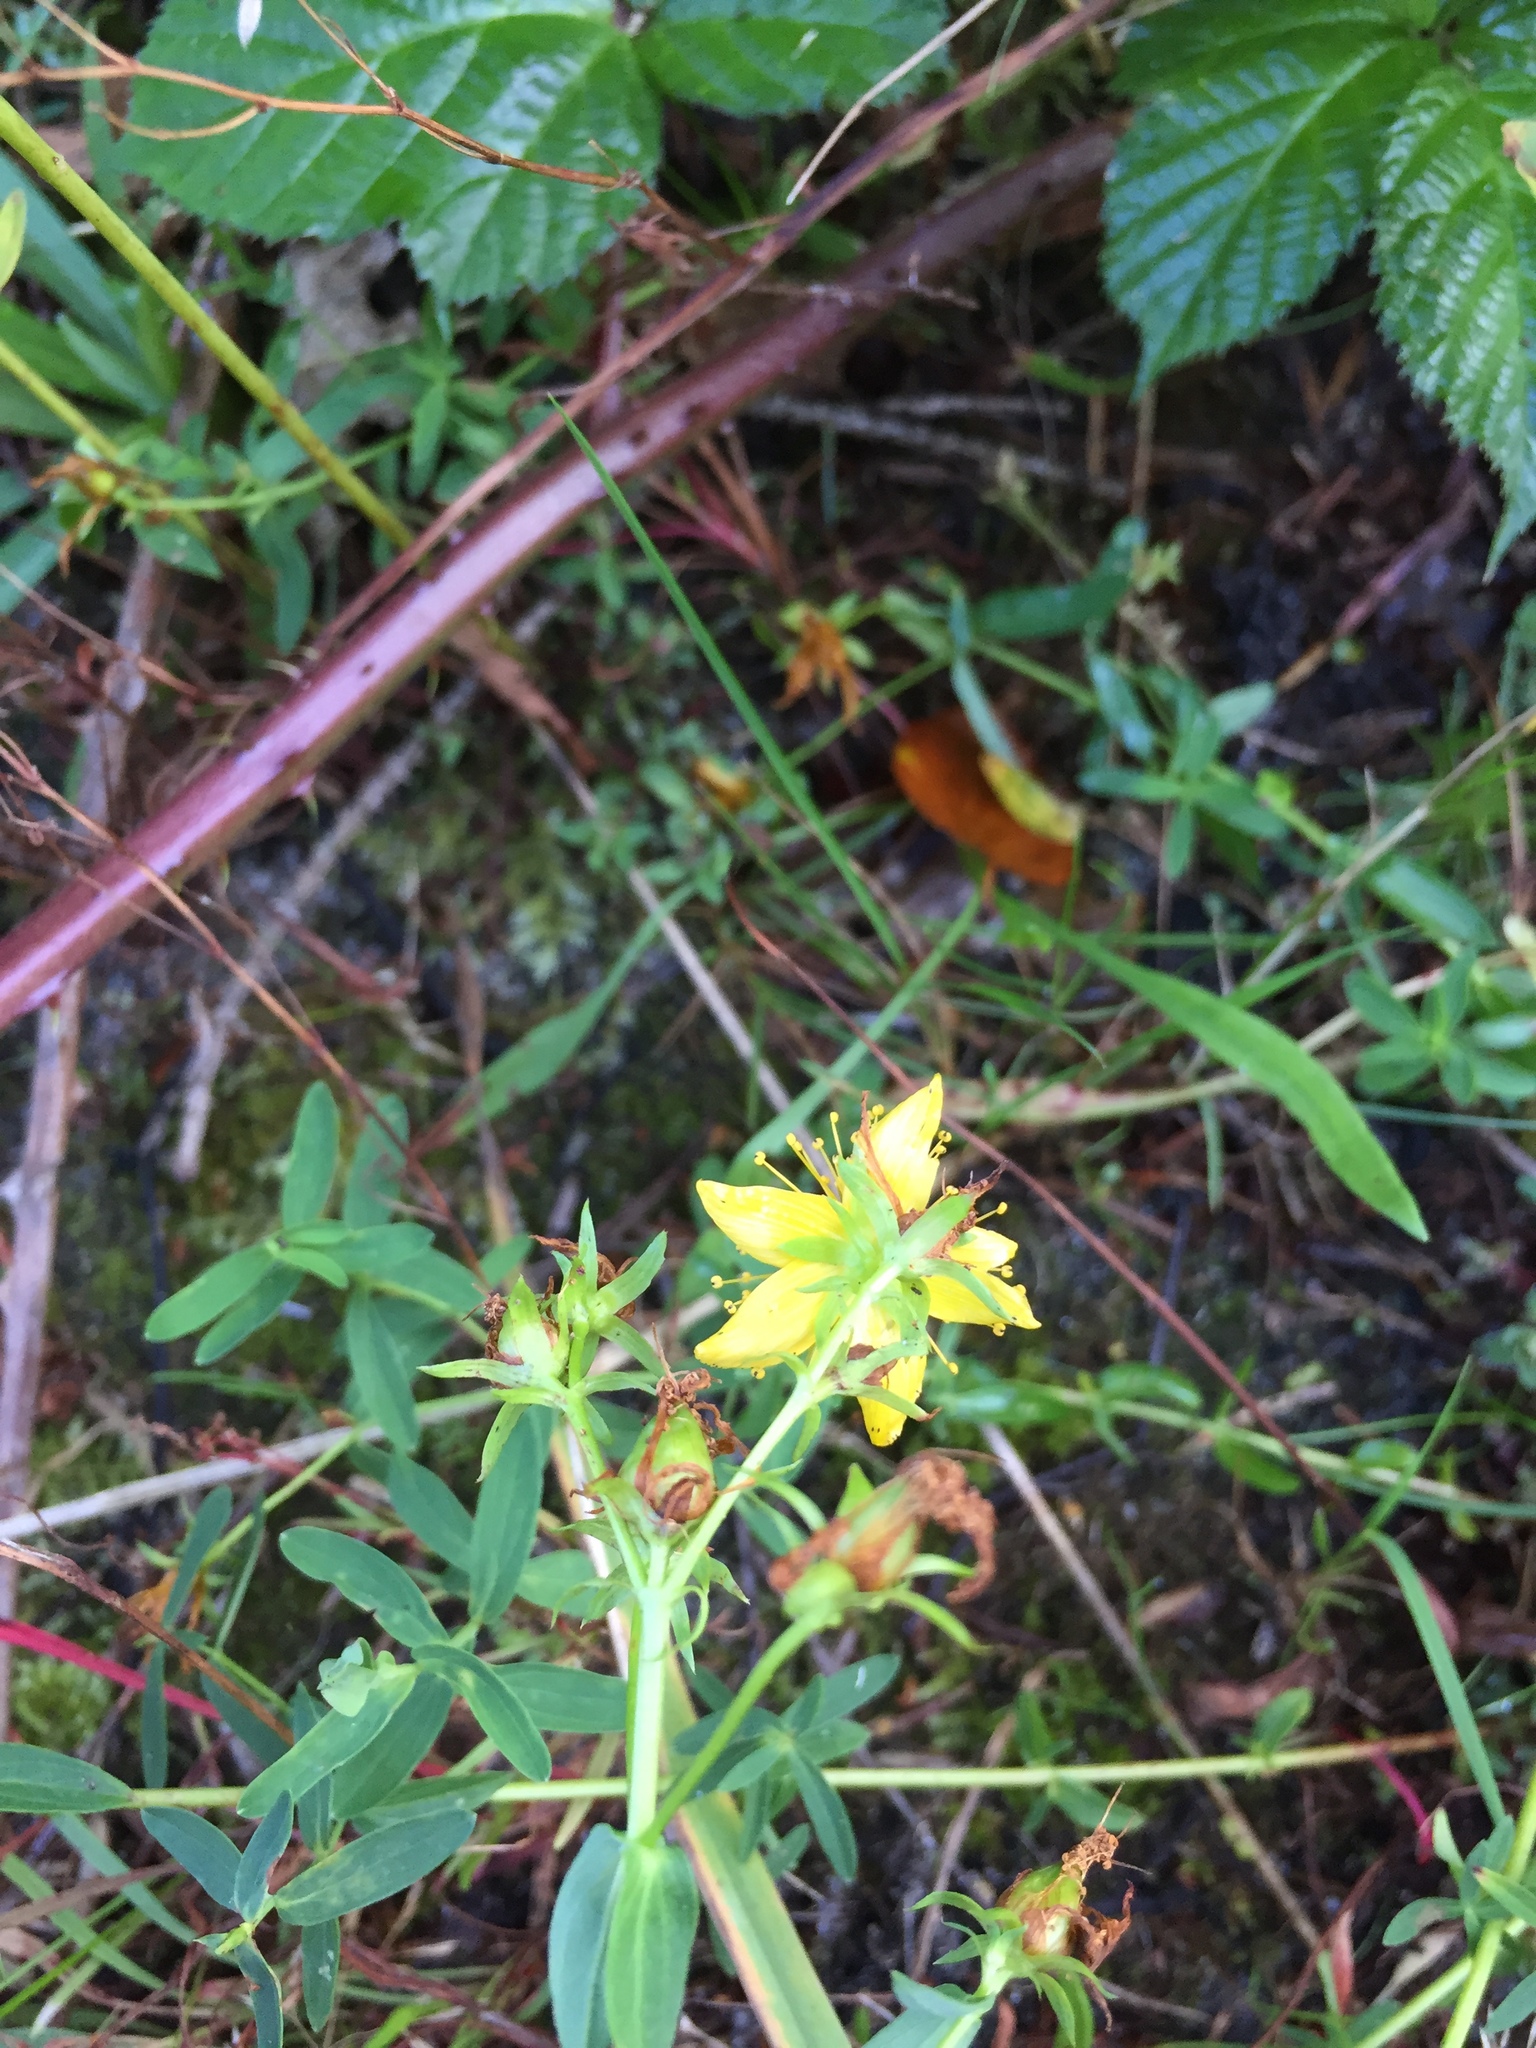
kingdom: Plantae
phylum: Tracheophyta
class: Magnoliopsida
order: Malpighiales
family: Hypericaceae
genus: Hypericum
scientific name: Hypericum perforatum
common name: Common st. johnswort
